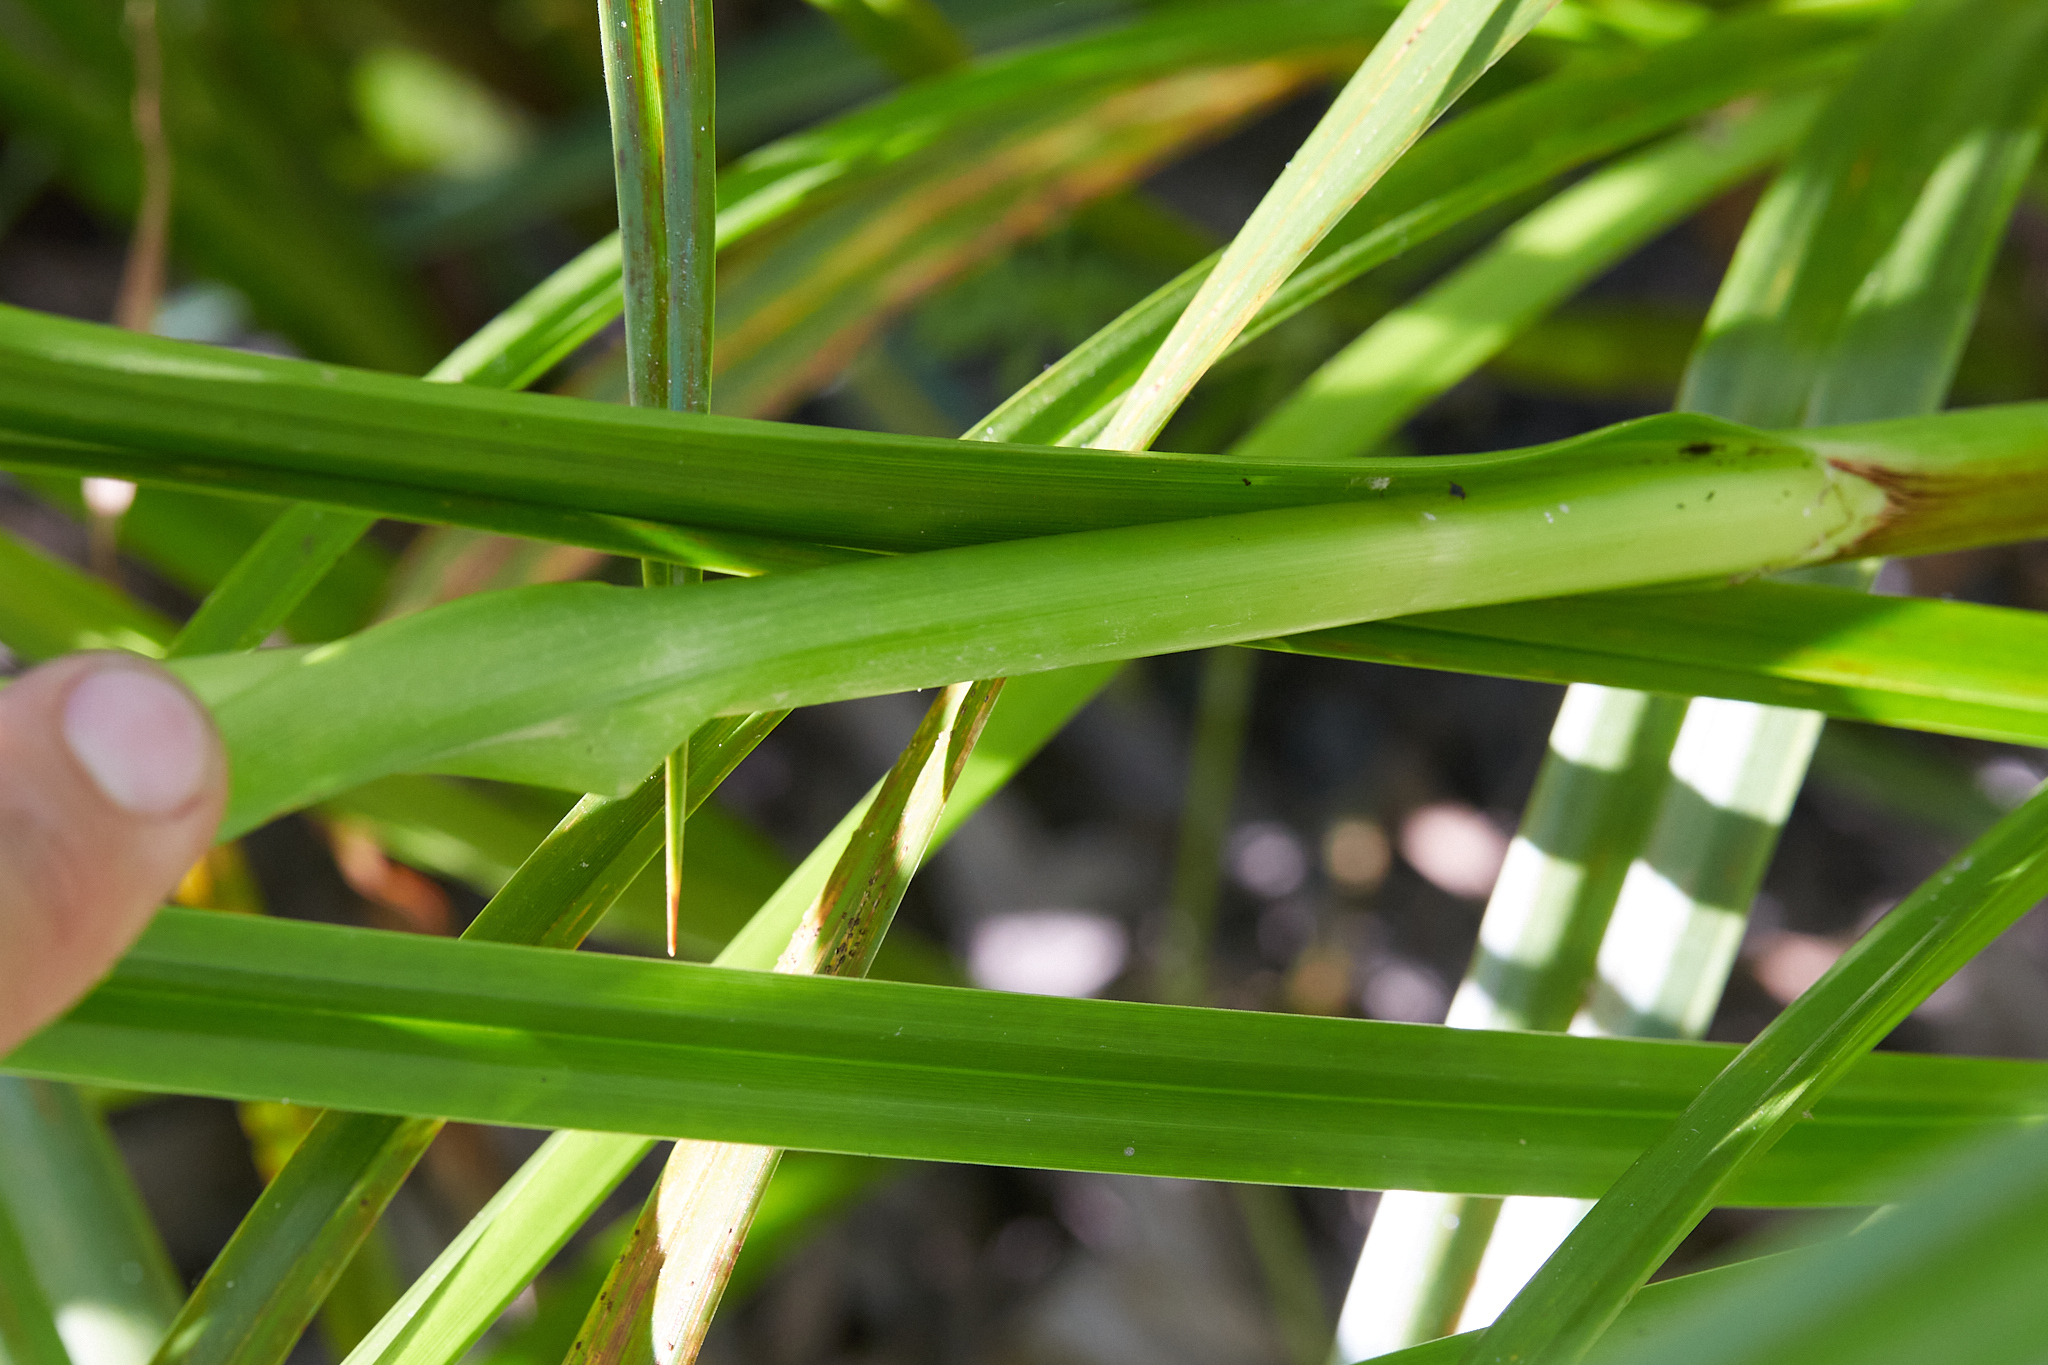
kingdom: Plantae
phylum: Tracheophyta
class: Liliopsida
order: Poales
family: Cyperaceae
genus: Scirpus
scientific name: Scirpus microcarpus
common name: Panicled bulrush
